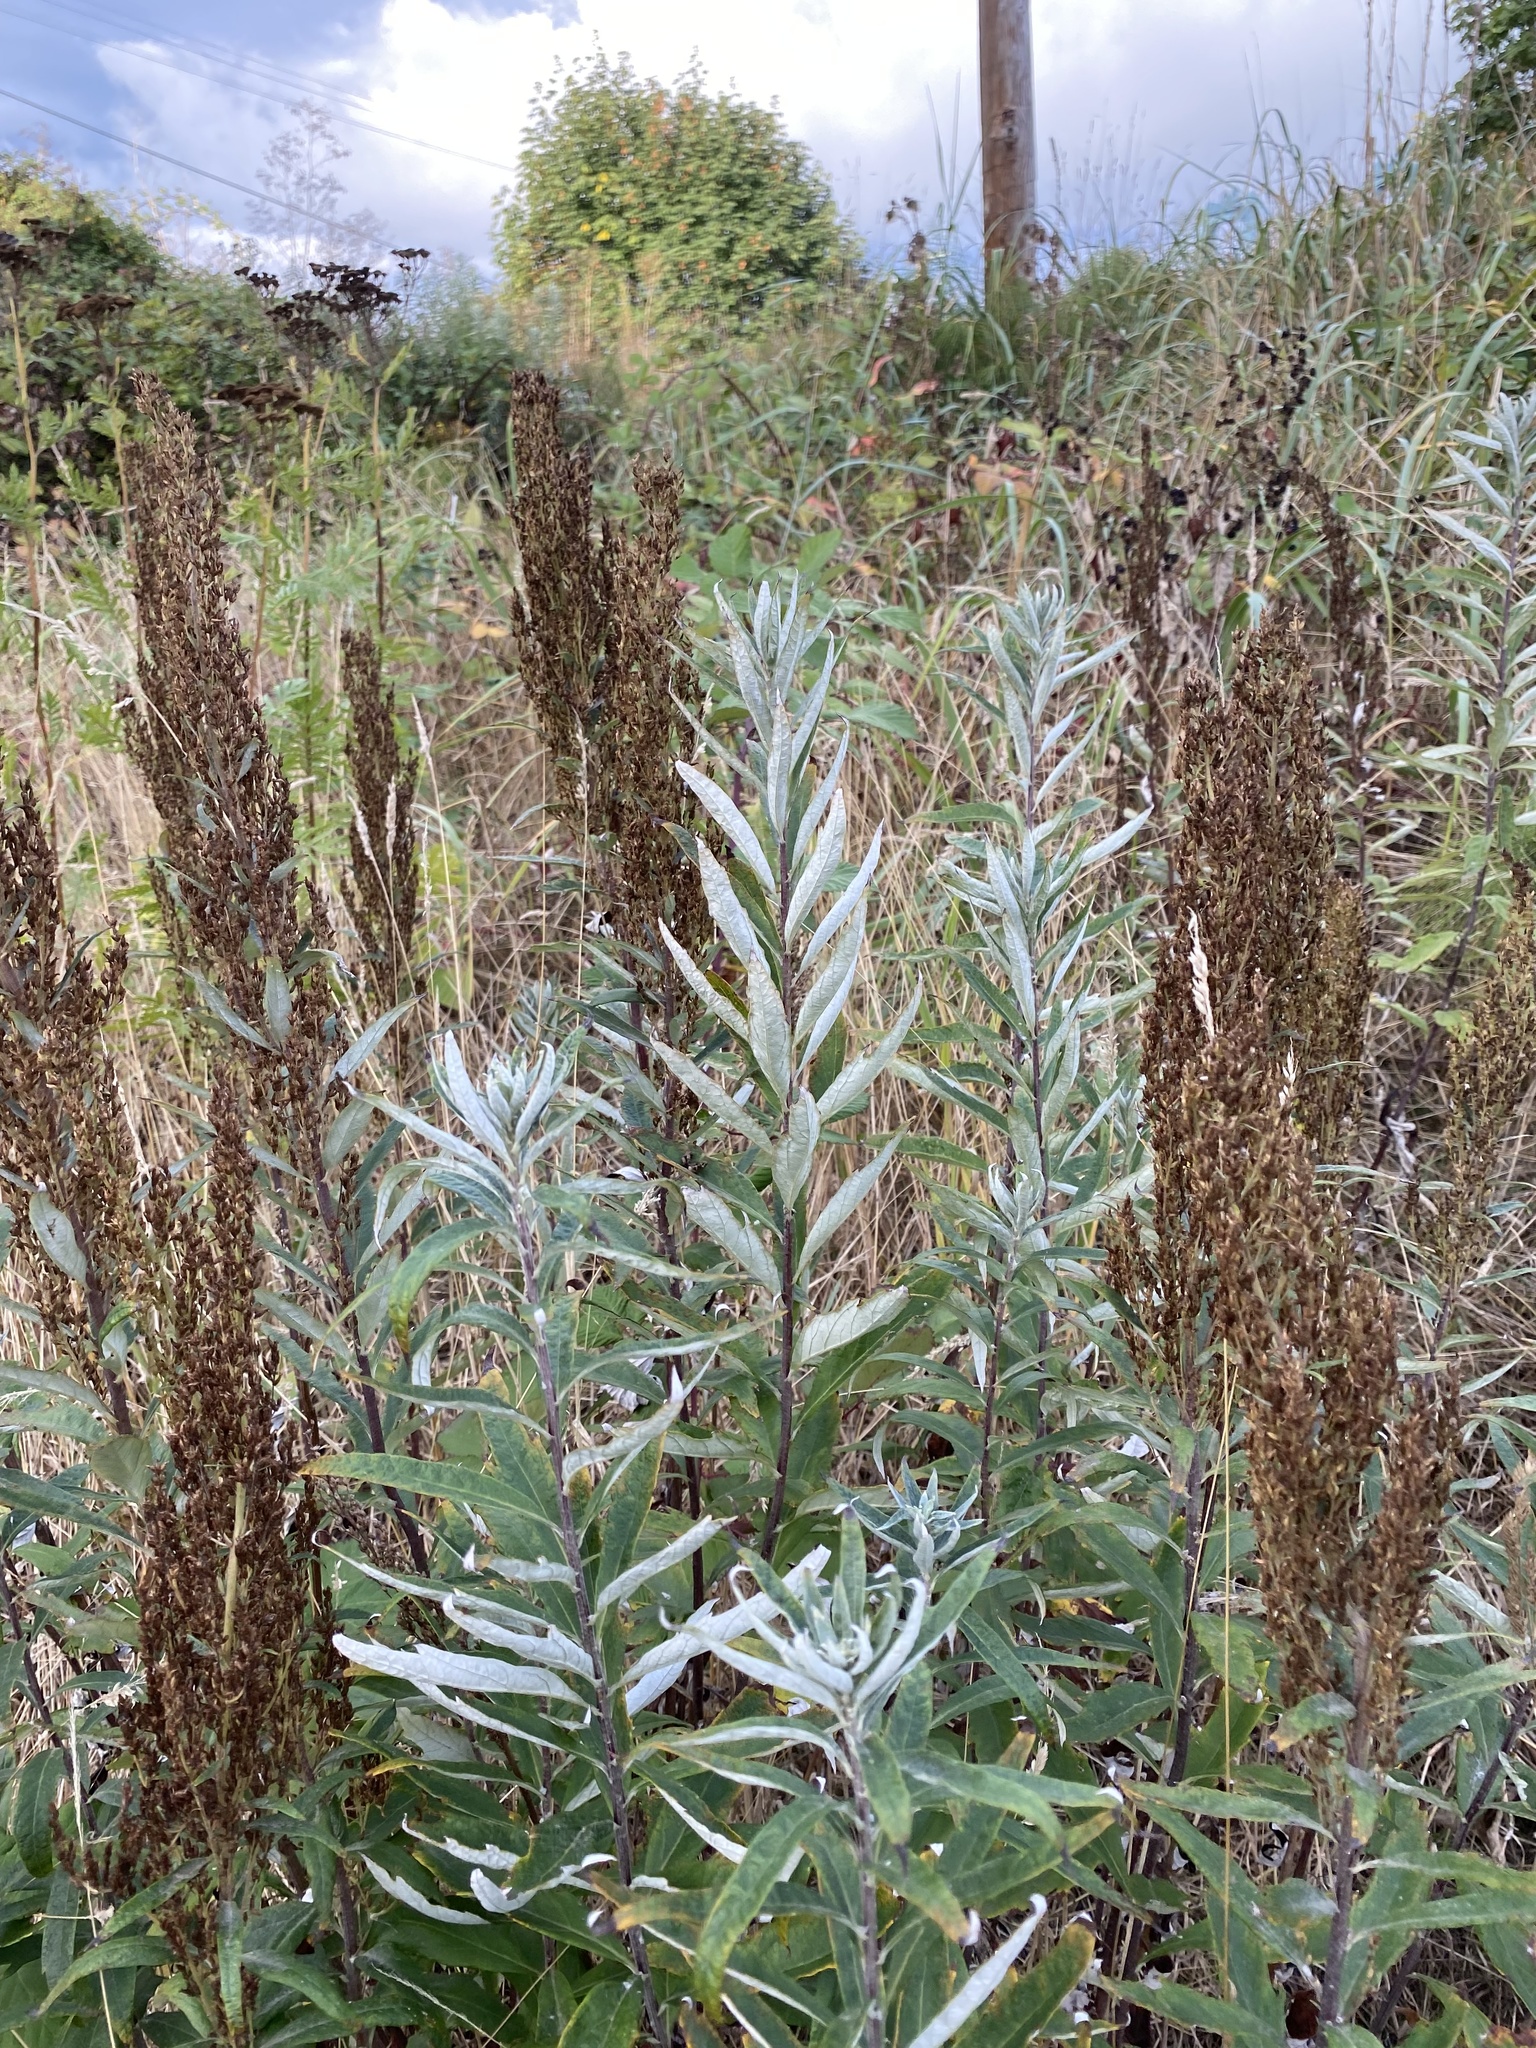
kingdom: Plantae
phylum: Tracheophyta
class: Magnoliopsida
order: Asterales
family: Asteraceae
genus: Artemisia
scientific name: Artemisia suksdorfii
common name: Suksdorf sagewort
